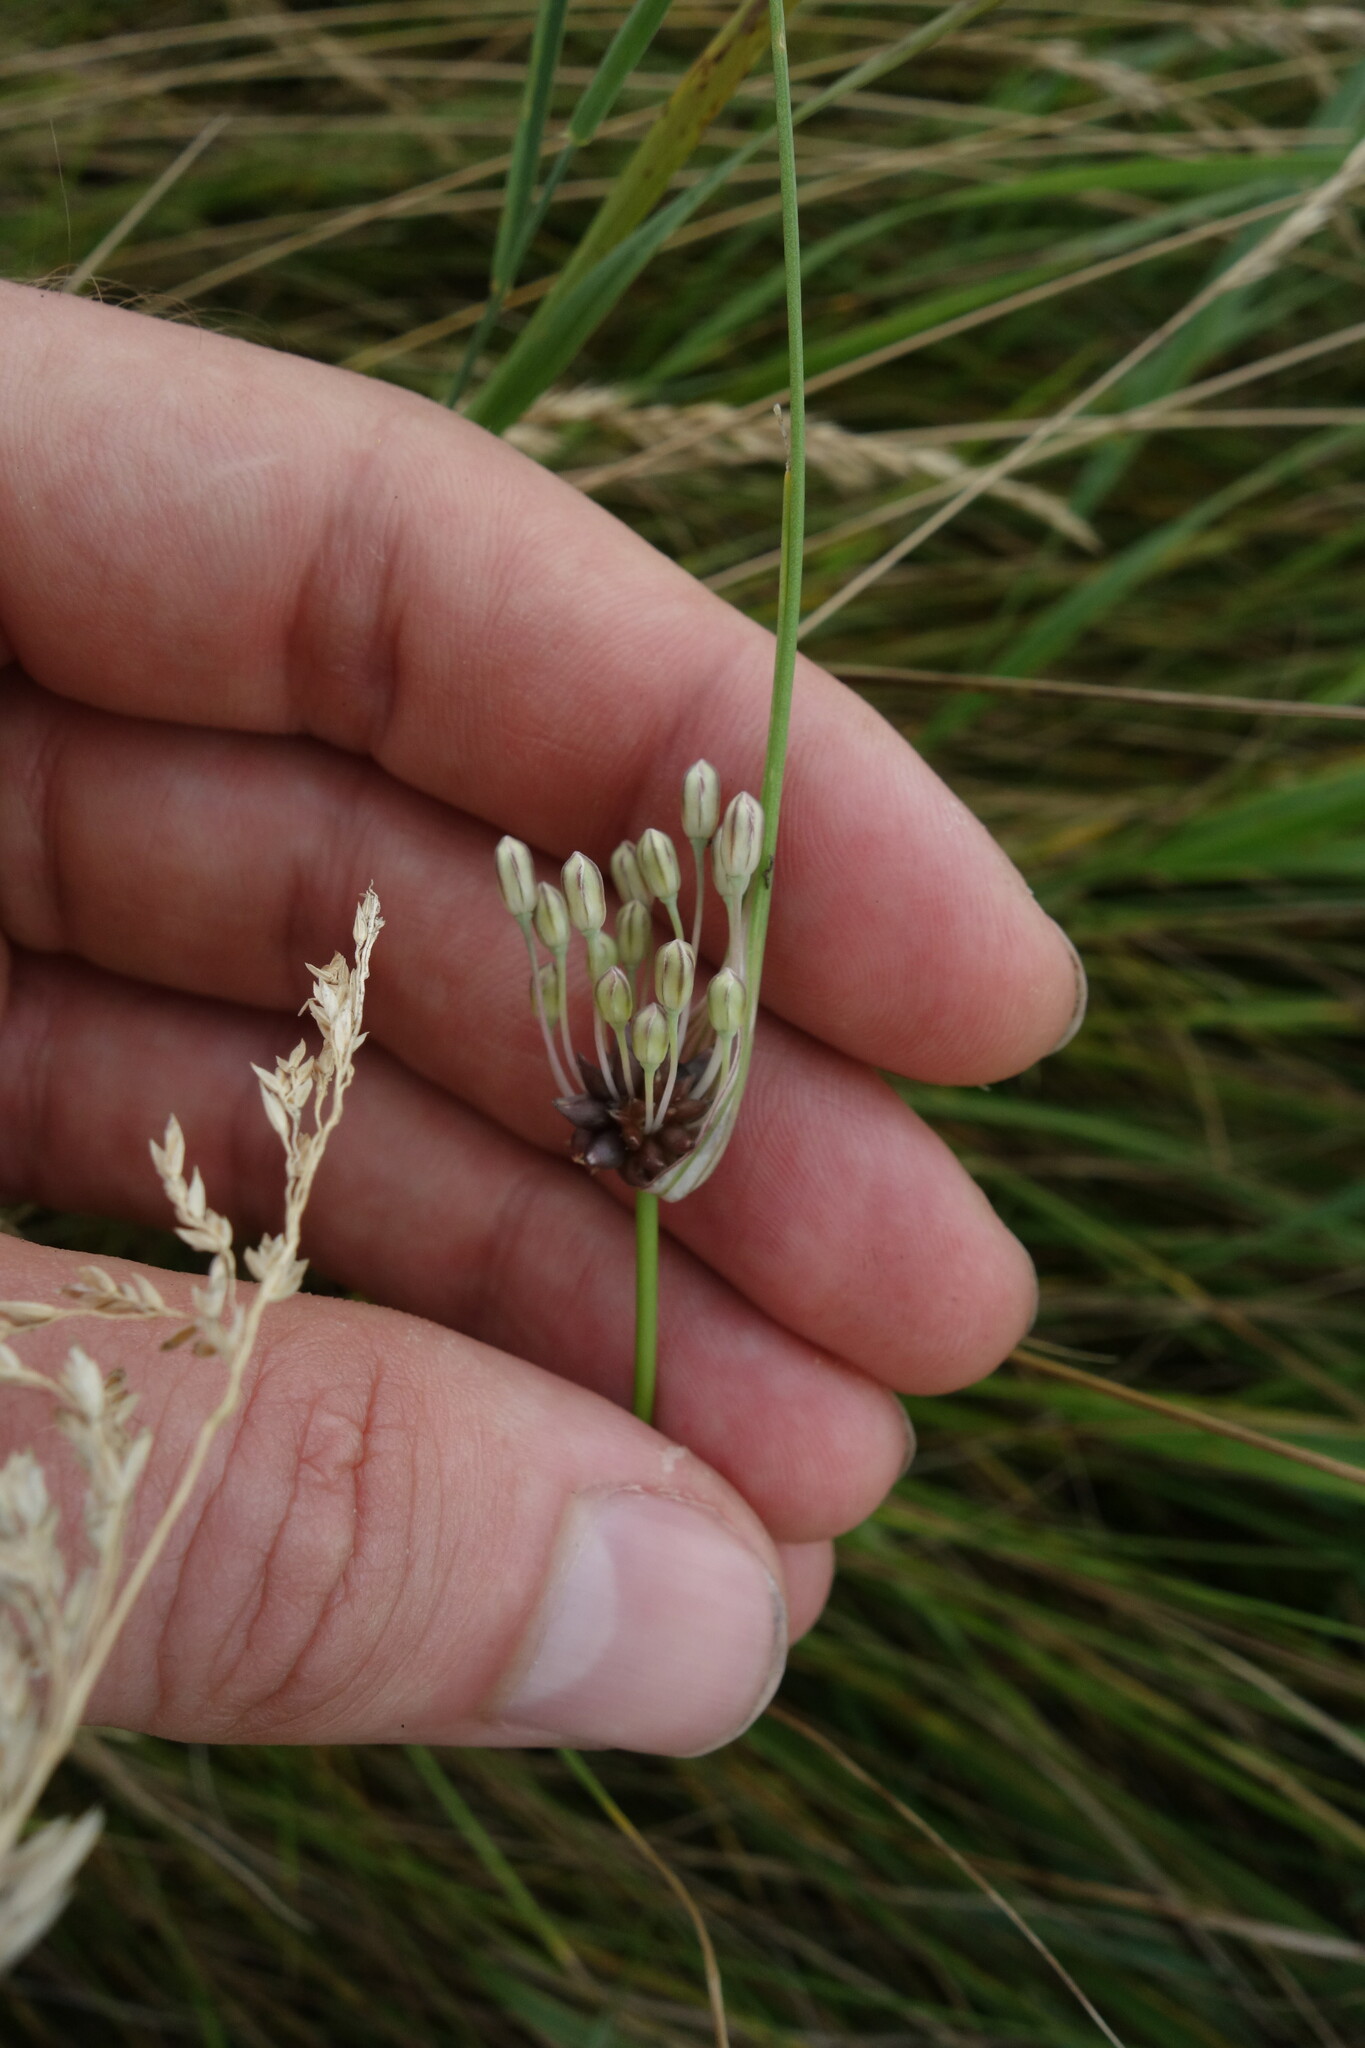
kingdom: Plantae
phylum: Tracheophyta
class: Liliopsida
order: Asparagales
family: Amaryllidaceae
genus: Allium
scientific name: Allium oleraceum
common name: Field garlic
